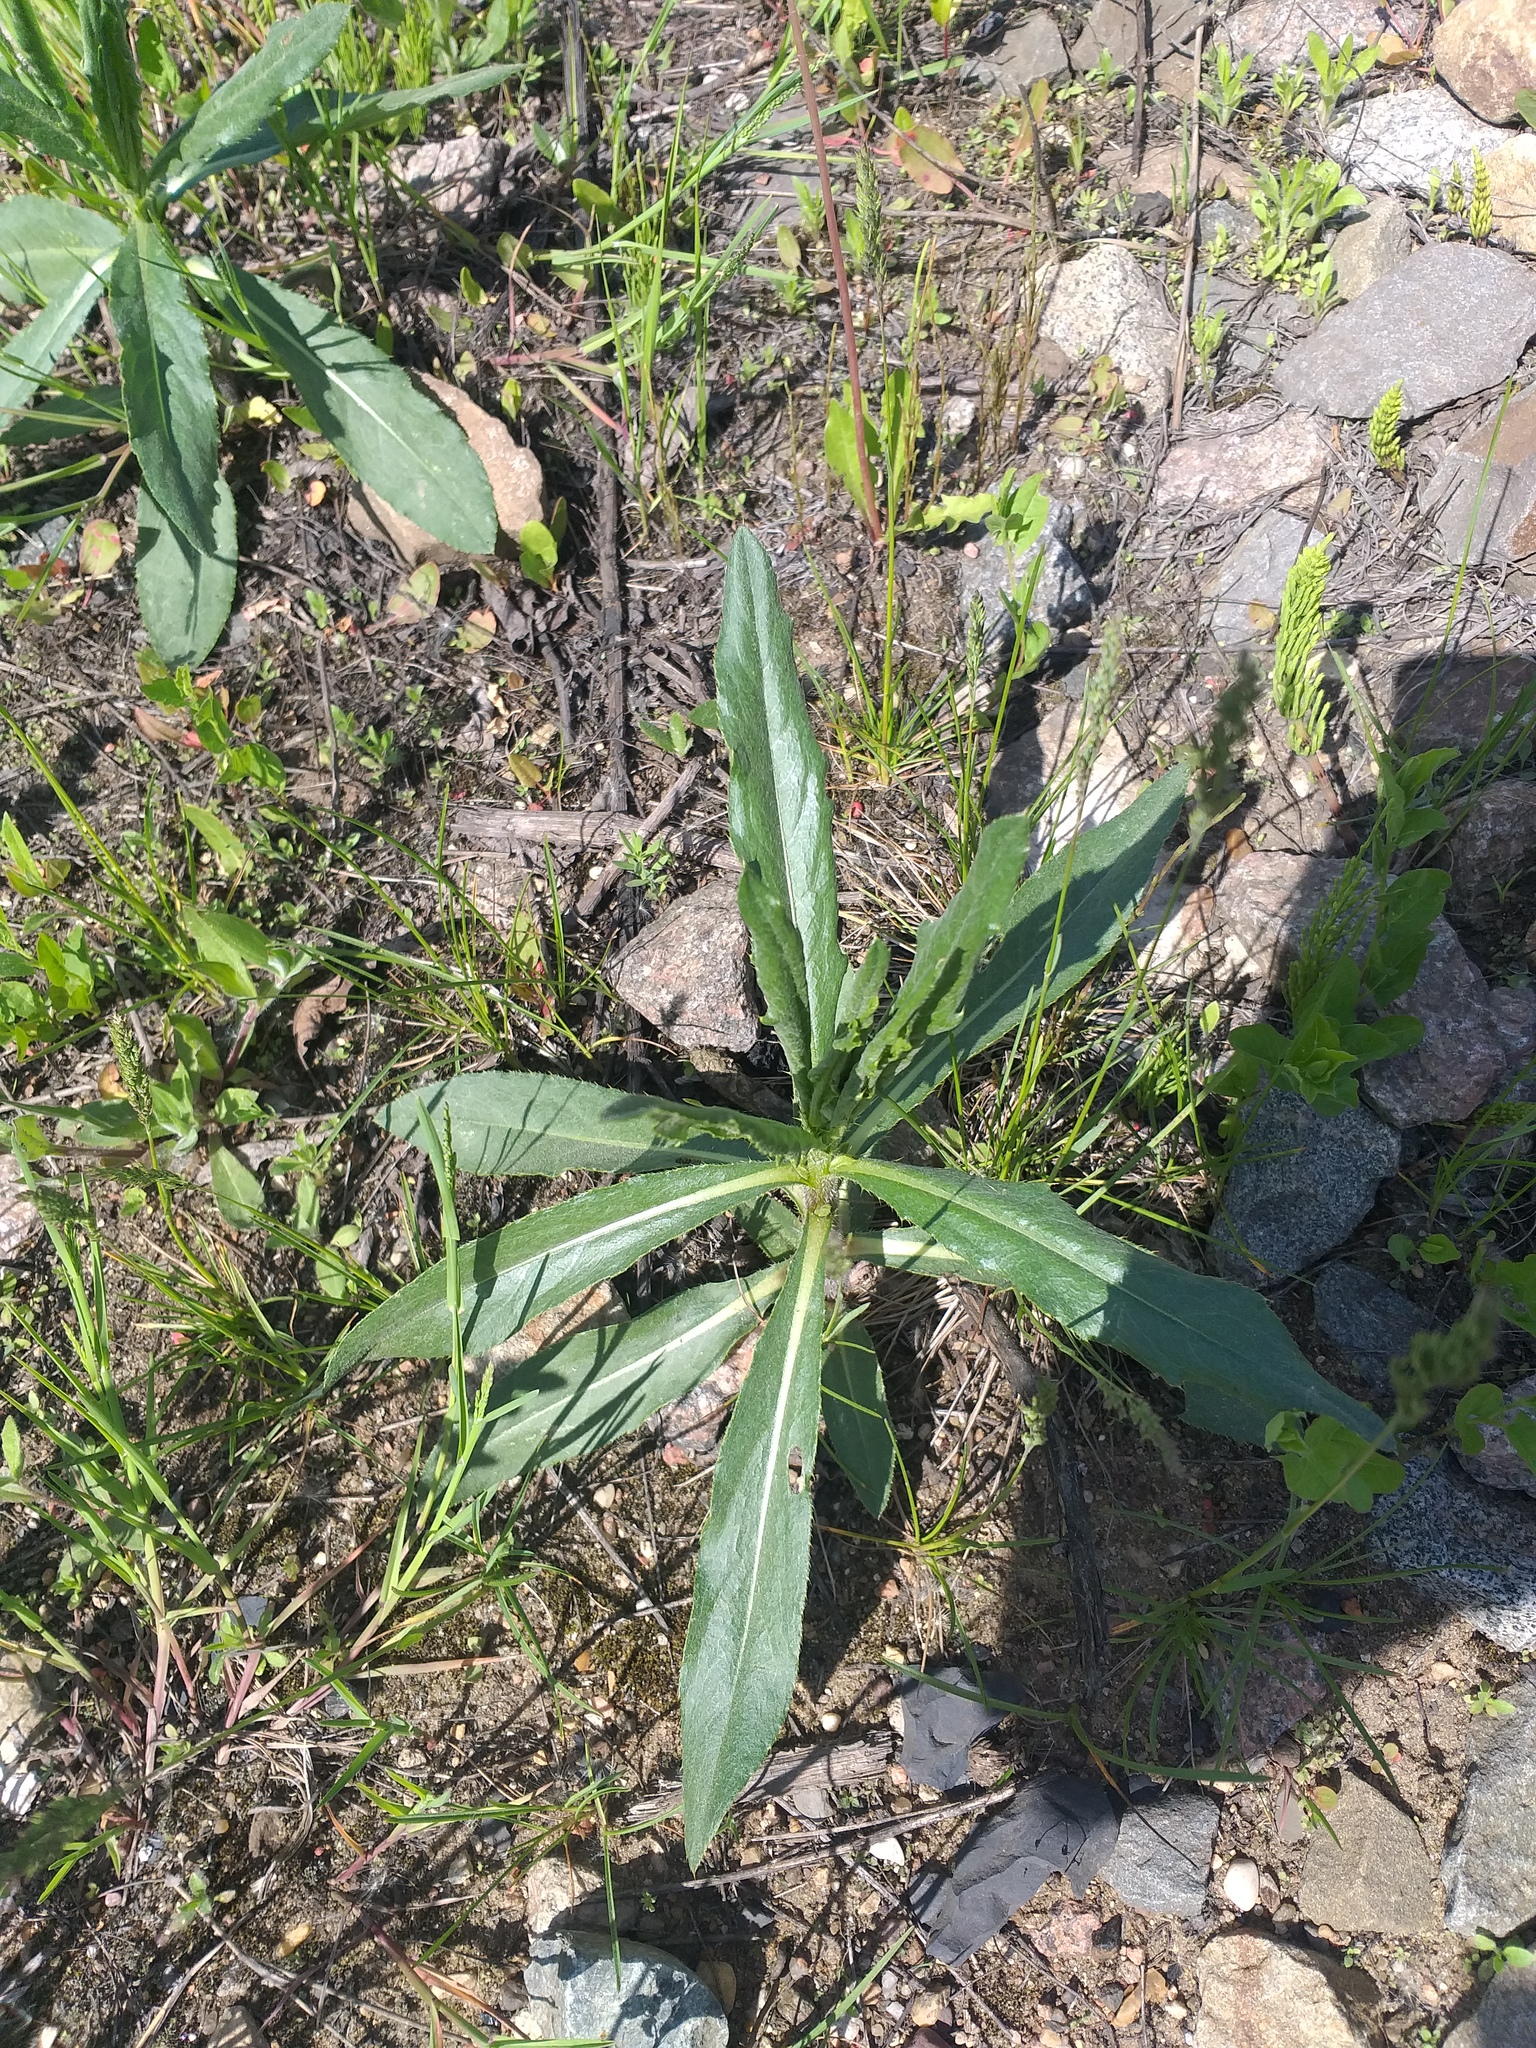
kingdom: Plantae
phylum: Tracheophyta
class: Magnoliopsida
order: Asterales
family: Asteraceae
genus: Cirsium
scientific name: Cirsium arvense
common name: Creeping thistle
